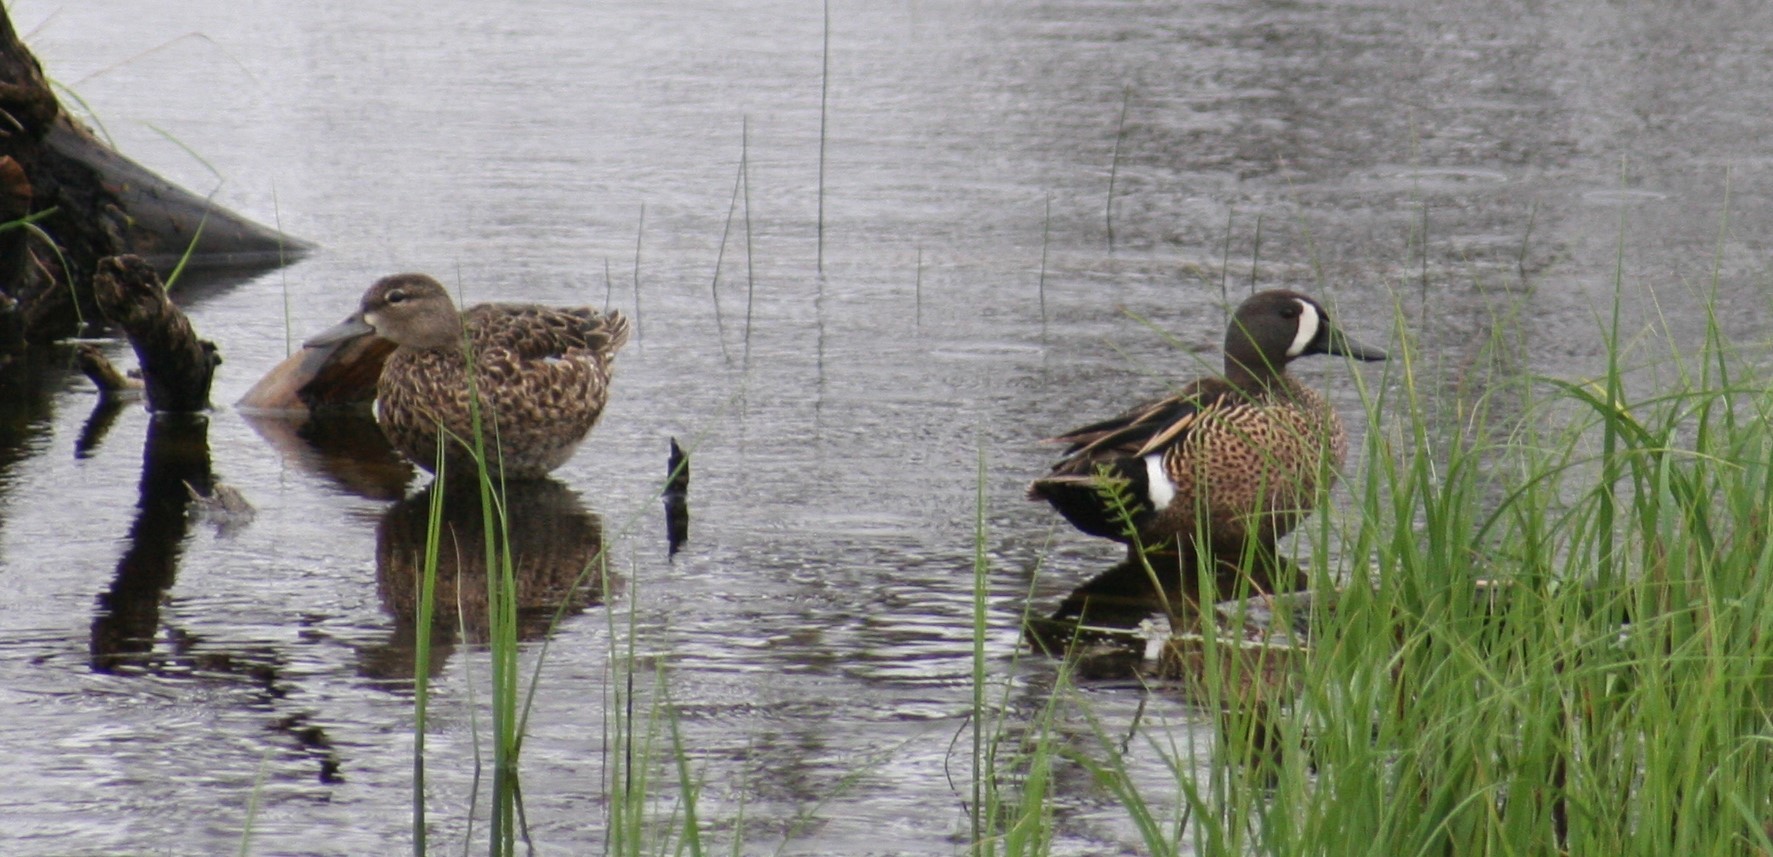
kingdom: Animalia
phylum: Chordata
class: Aves
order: Anseriformes
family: Anatidae
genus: Spatula
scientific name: Spatula discors
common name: Blue-winged teal
